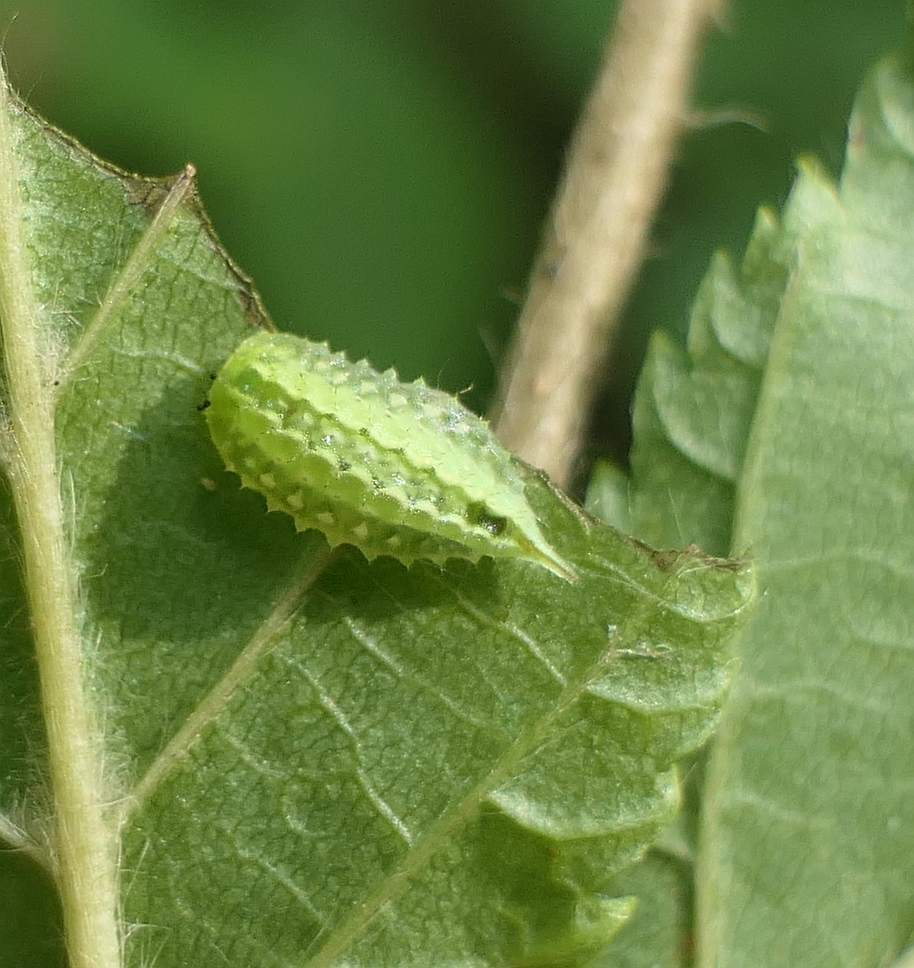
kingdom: Animalia
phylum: Arthropoda
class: Insecta
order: Lepidoptera
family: Limacodidae
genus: Packardia
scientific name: Packardia elegans
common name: Elegant tailed slug moth
